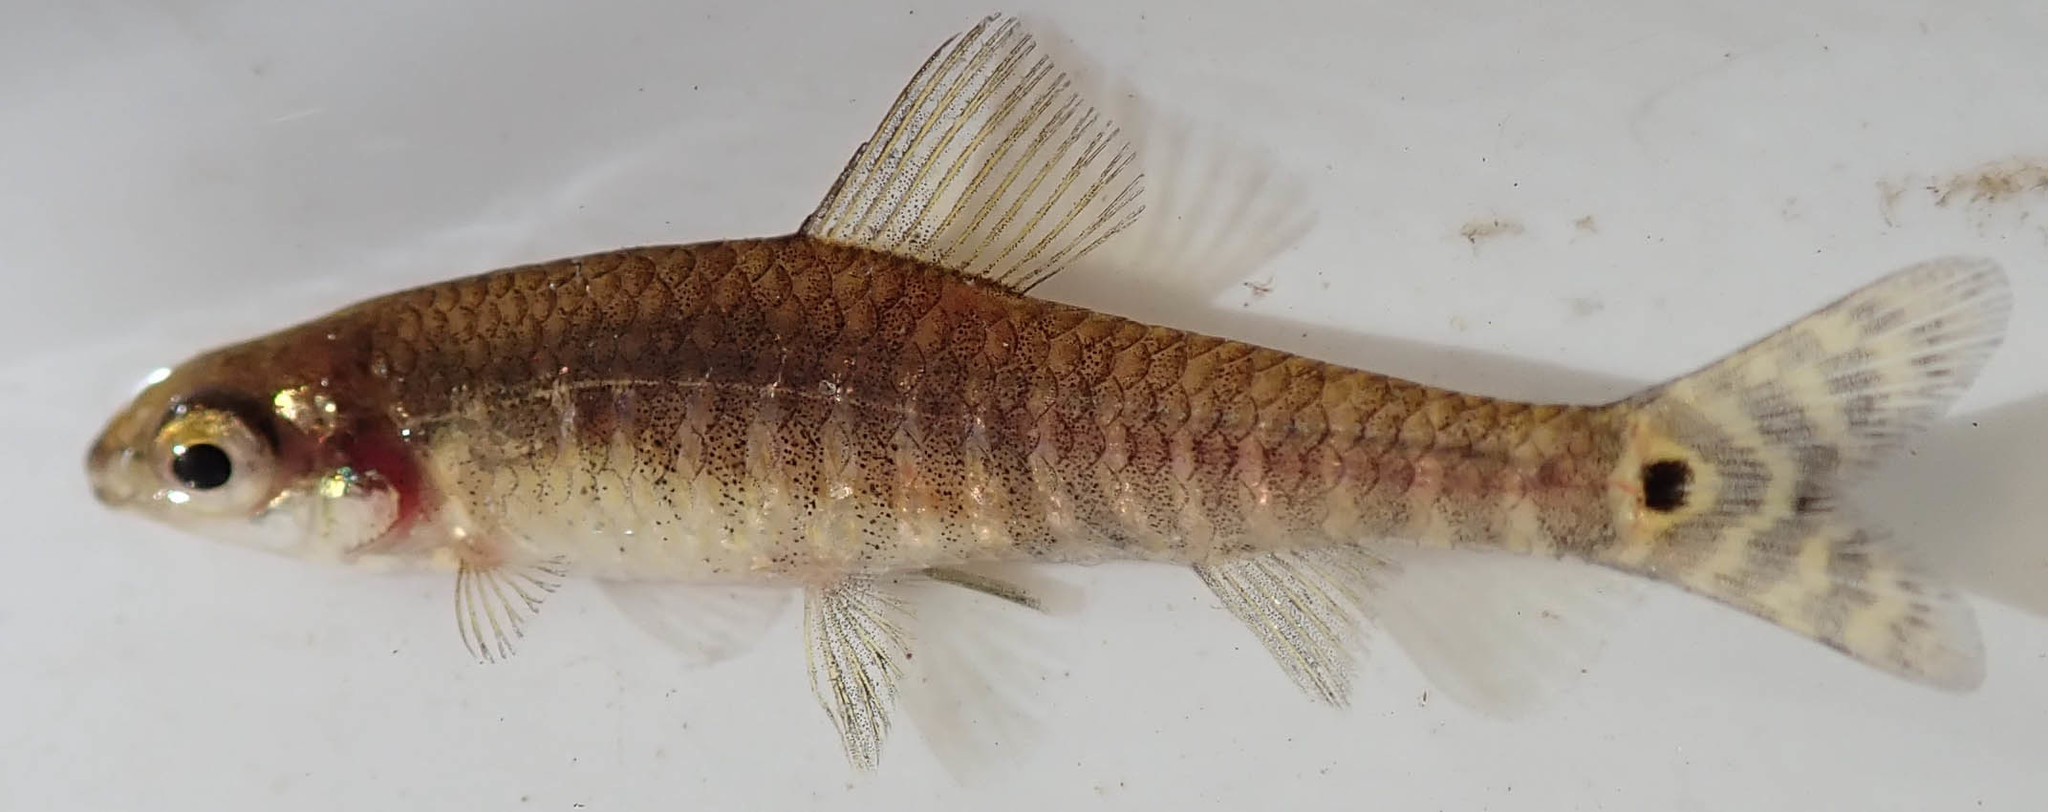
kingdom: Animalia
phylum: Chordata
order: Characiformes
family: Distichodontidae
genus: Nannocharax
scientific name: Nannocharax machadoi
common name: Dwarf citharine
